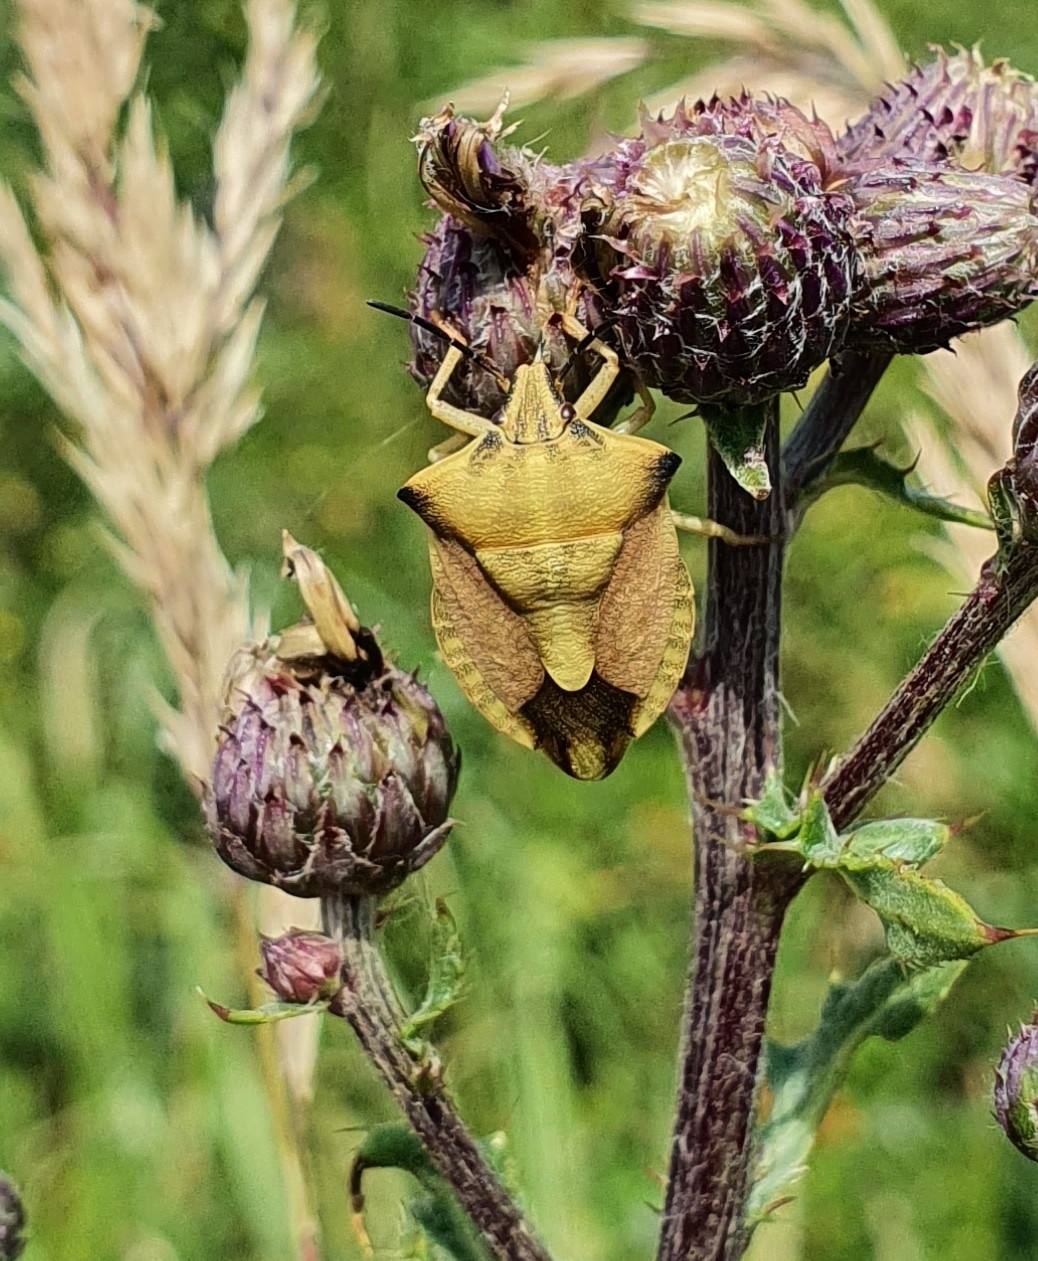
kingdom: Animalia
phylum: Arthropoda
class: Insecta
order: Hemiptera
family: Pentatomidae
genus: Carpocoris
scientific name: Carpocoris fuscispinus
